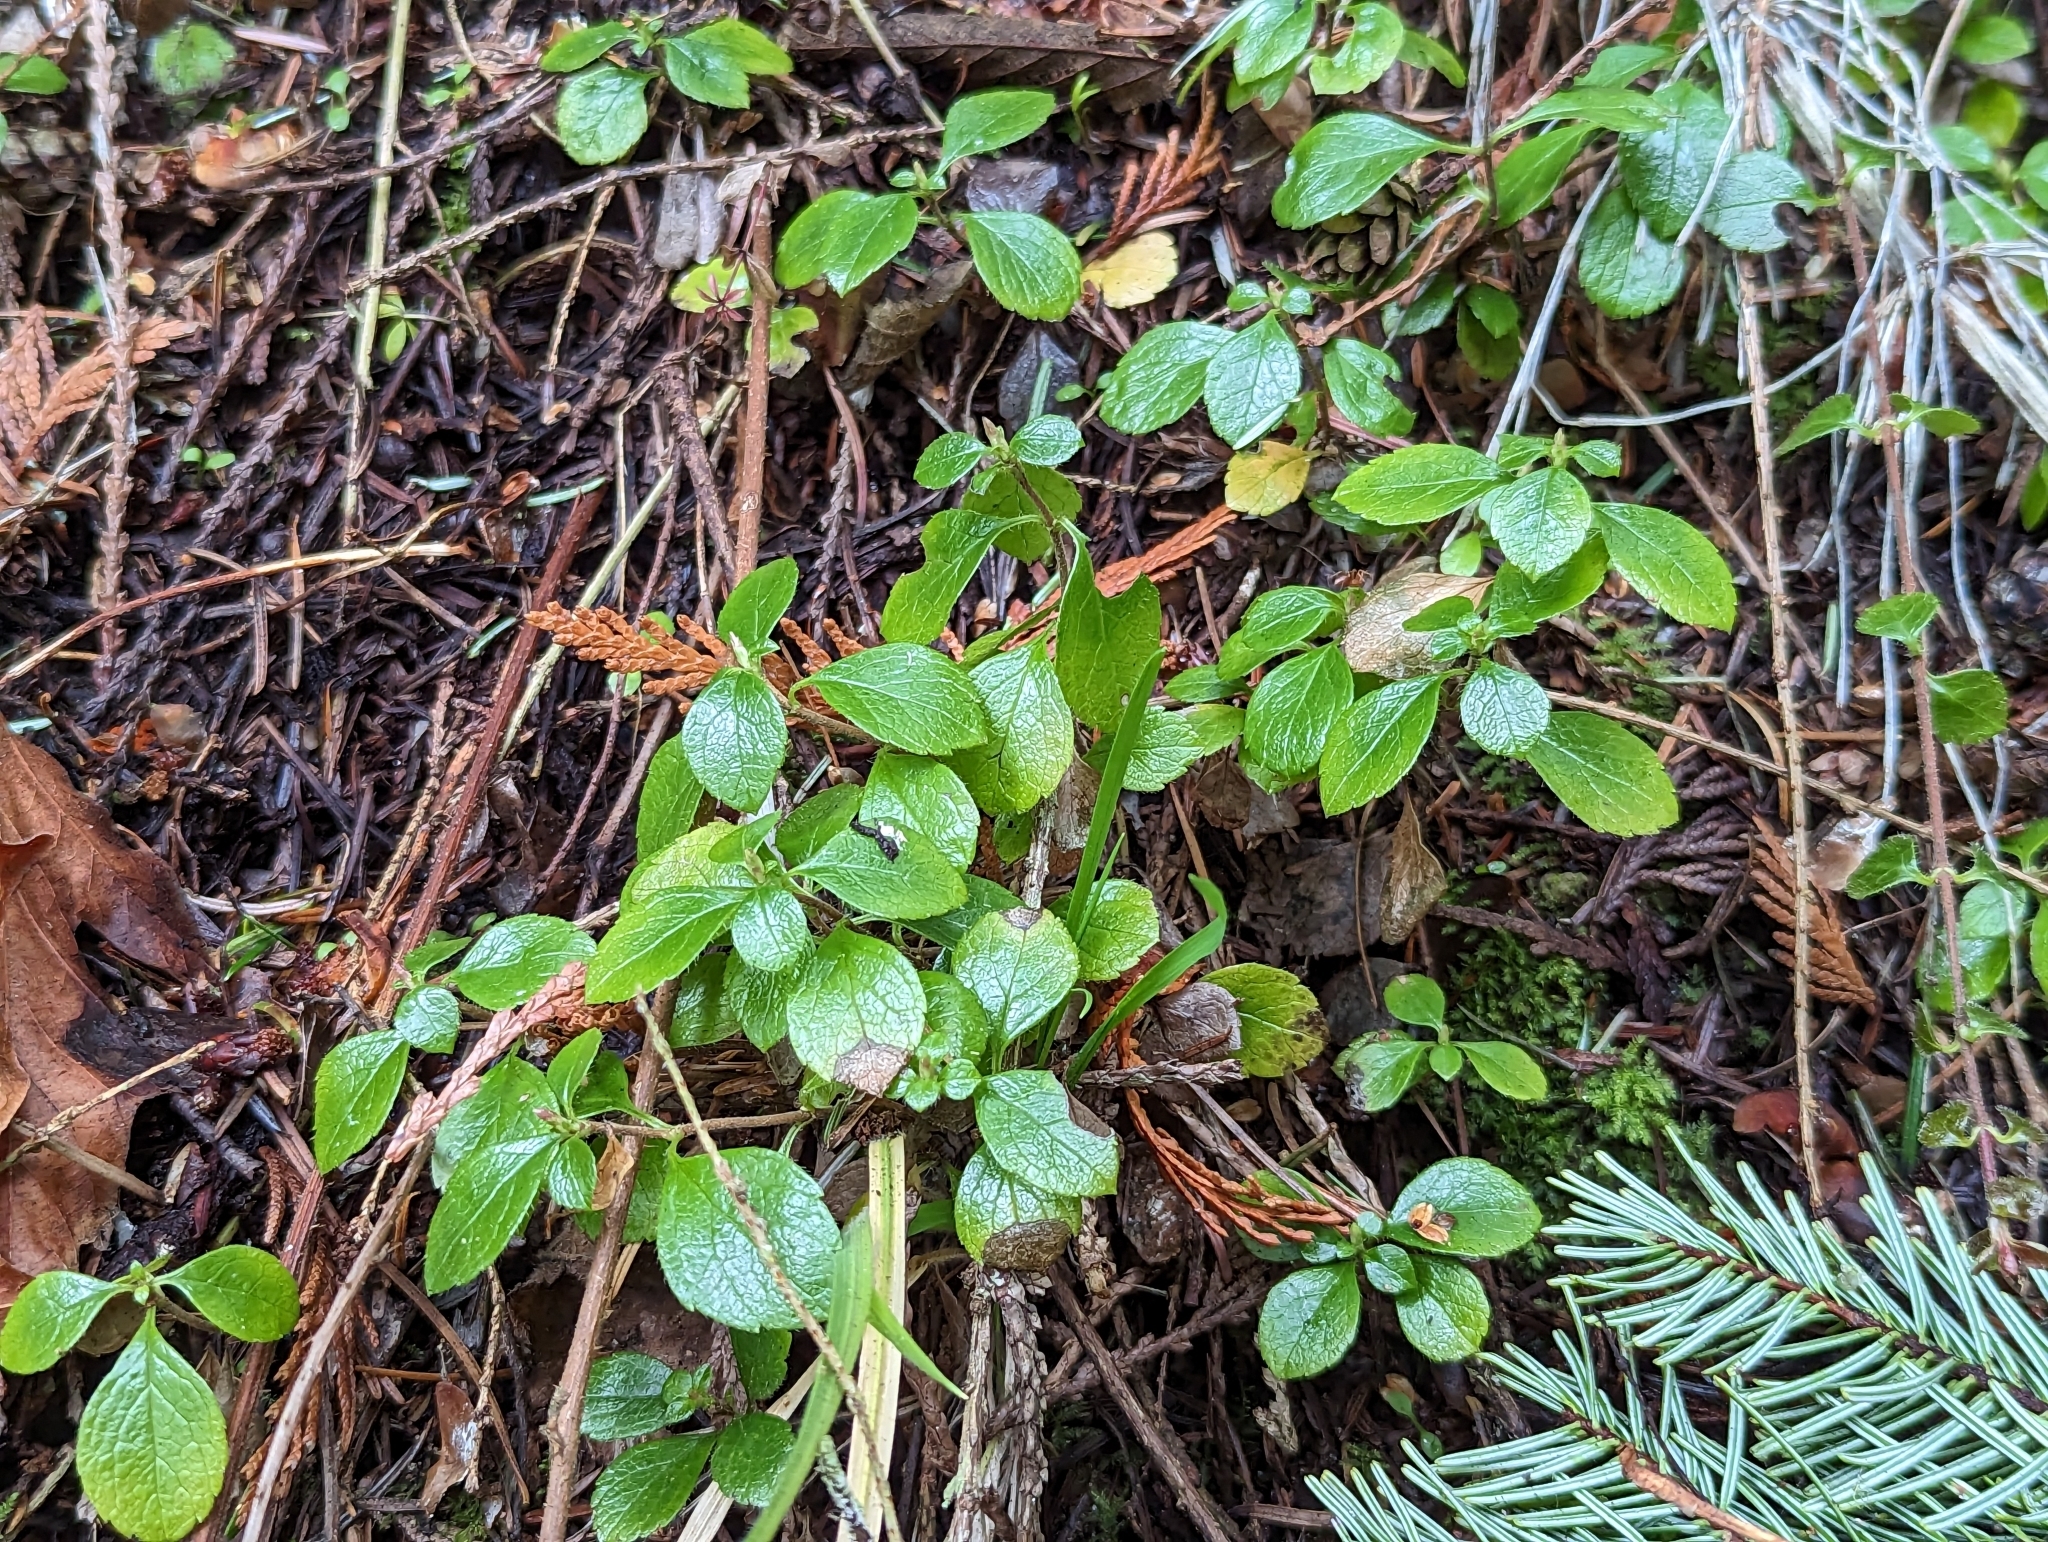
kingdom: Plantae
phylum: Tracheophyta
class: Magnoliopsida
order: Dipsacales
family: Caprifoliaceae
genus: Linnaea
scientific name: Linnaea borealis
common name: Twinflower
